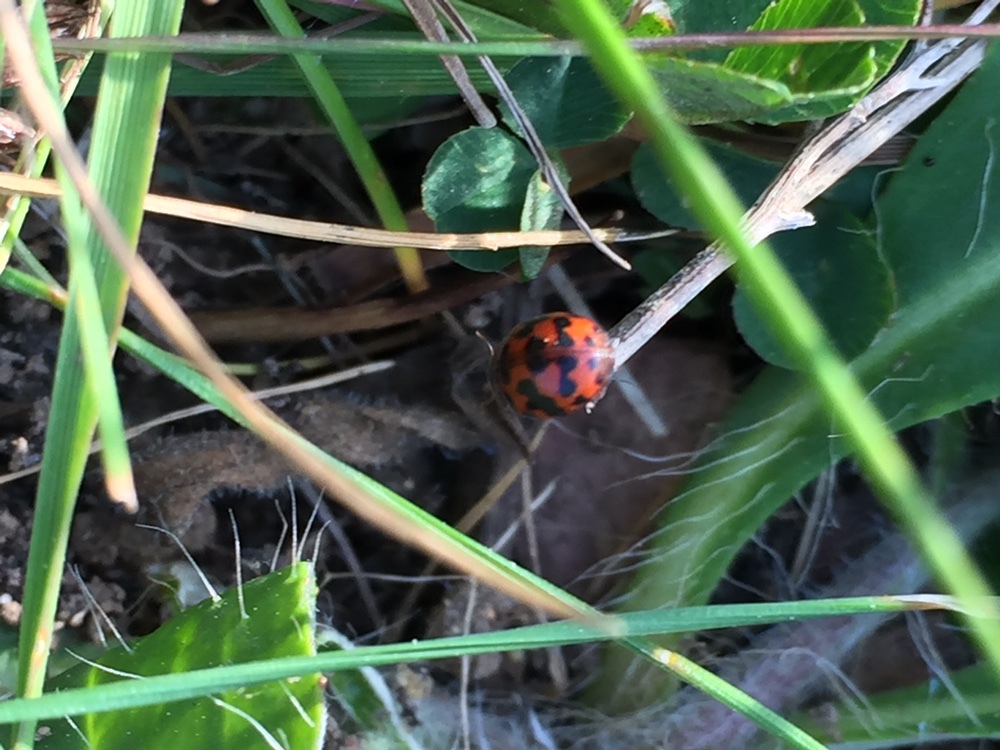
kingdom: Animalia
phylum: Arthropoda
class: Insecta
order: Coleoptera
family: Coccinellidae
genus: Subcoccinella
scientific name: Subcoccinella vigintiquatuorpunctata
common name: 24-spot ladybird
